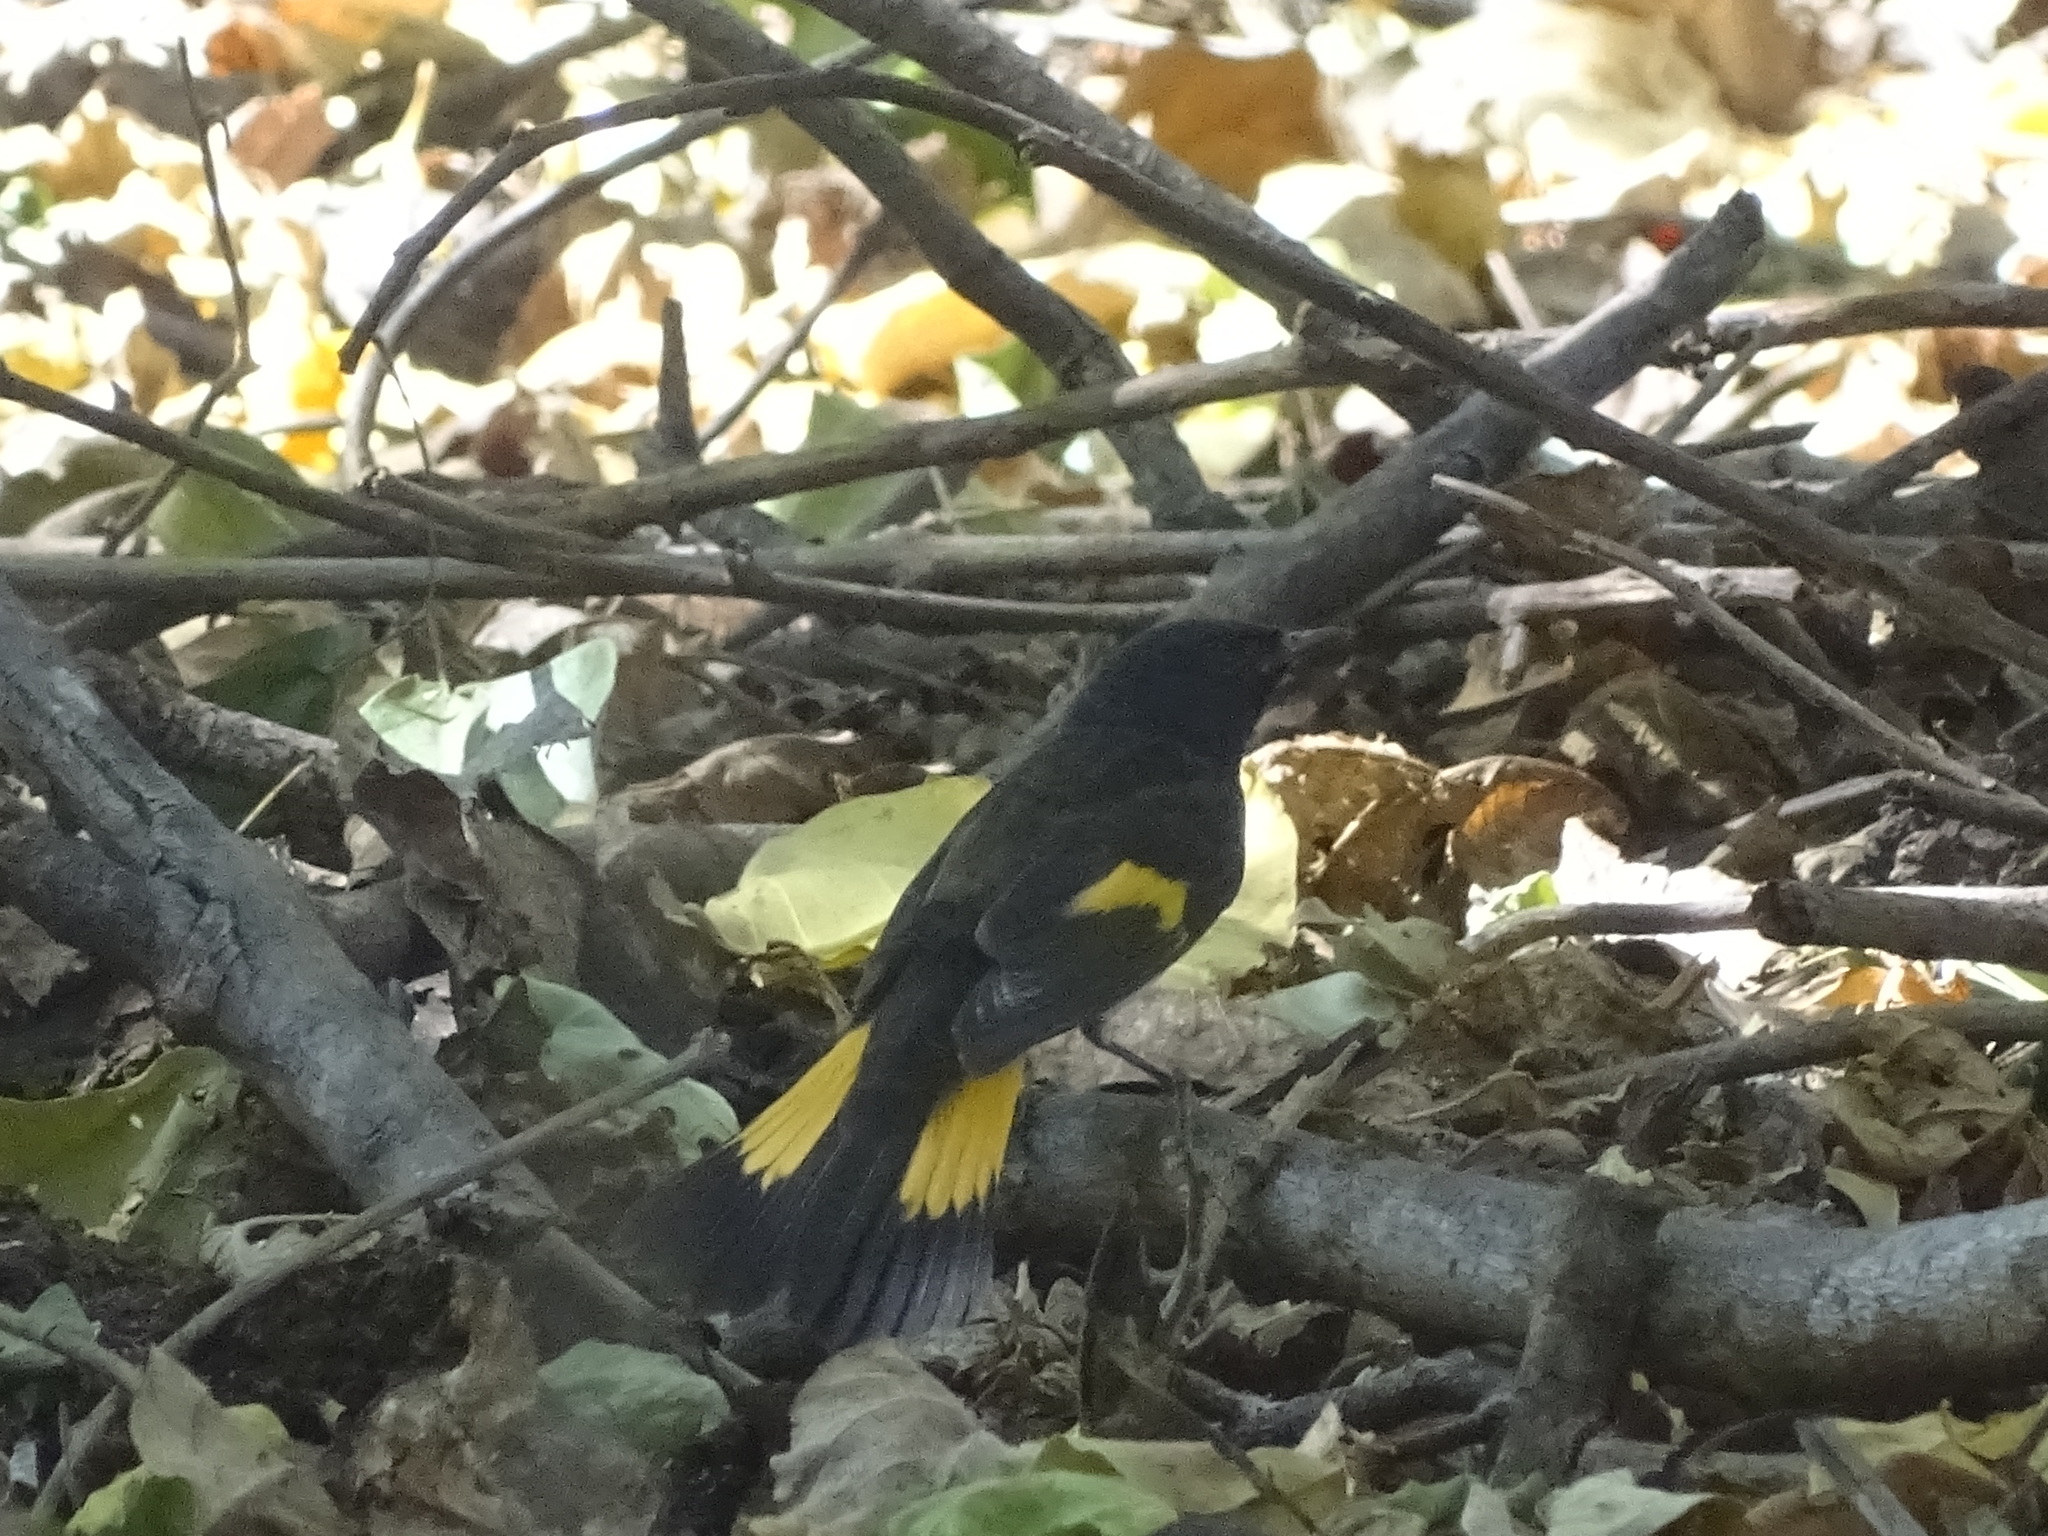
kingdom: Animalia
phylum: Chordata
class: Aves
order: Passeriformes
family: Parulidae
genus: Setophaga
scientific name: Setophaga ruticilla
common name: American redstart
